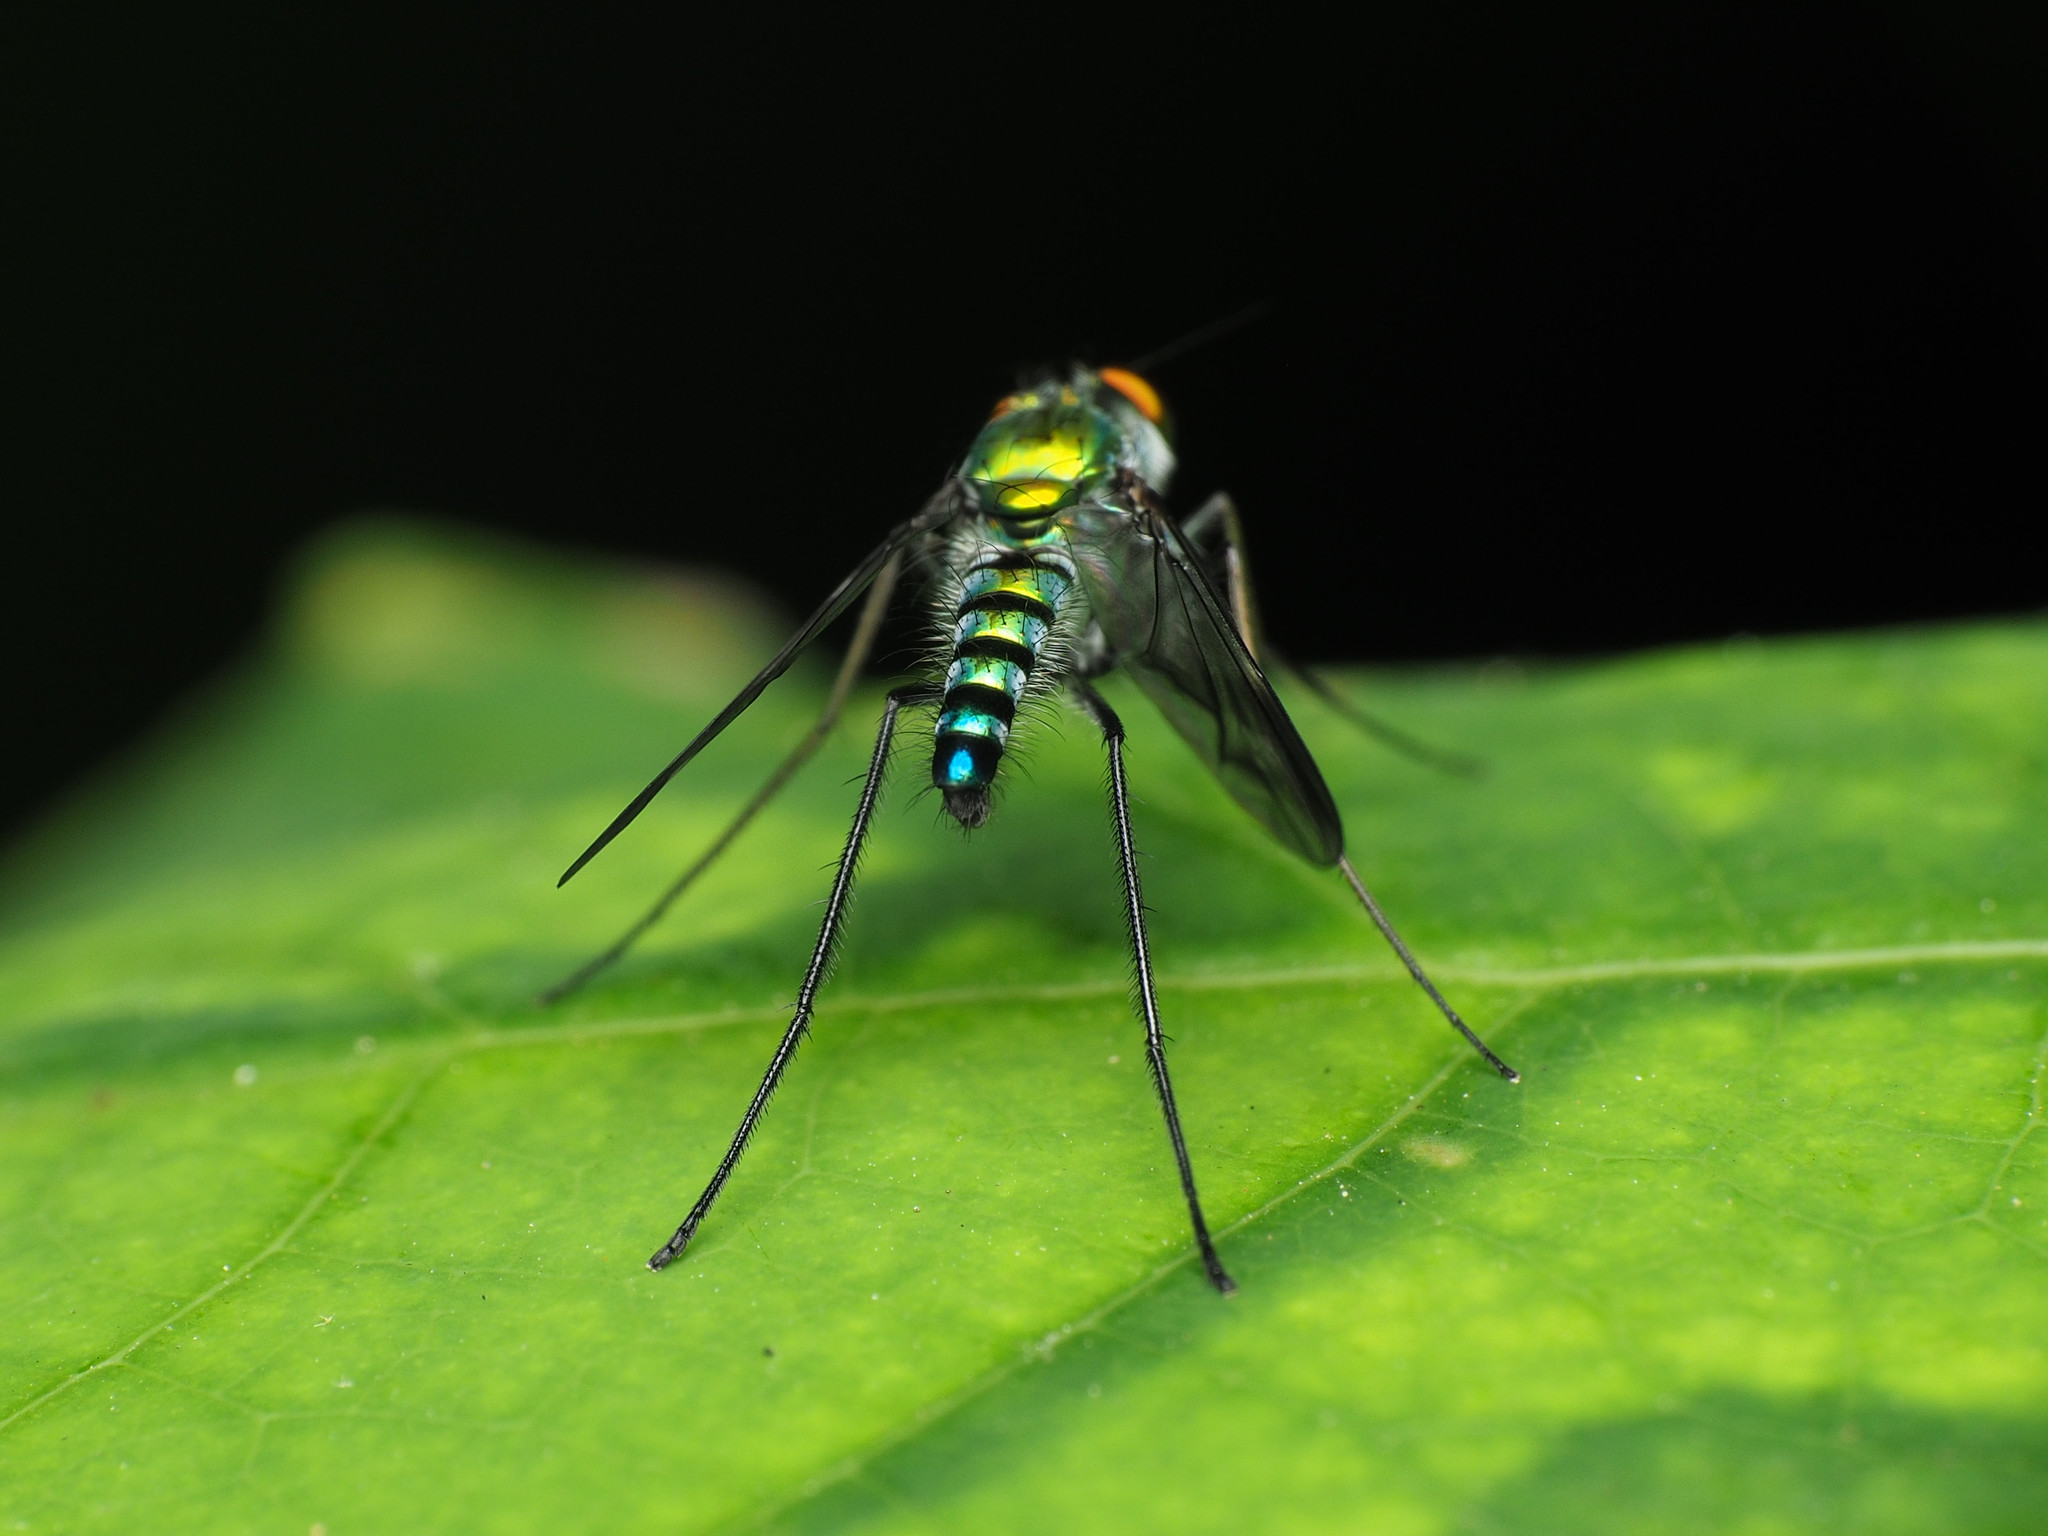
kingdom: Animalia
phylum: Arthropoda
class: Insecta
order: Diptera
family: Dolichopodidae
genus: Condylostylus
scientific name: Condylostylus leonardi
